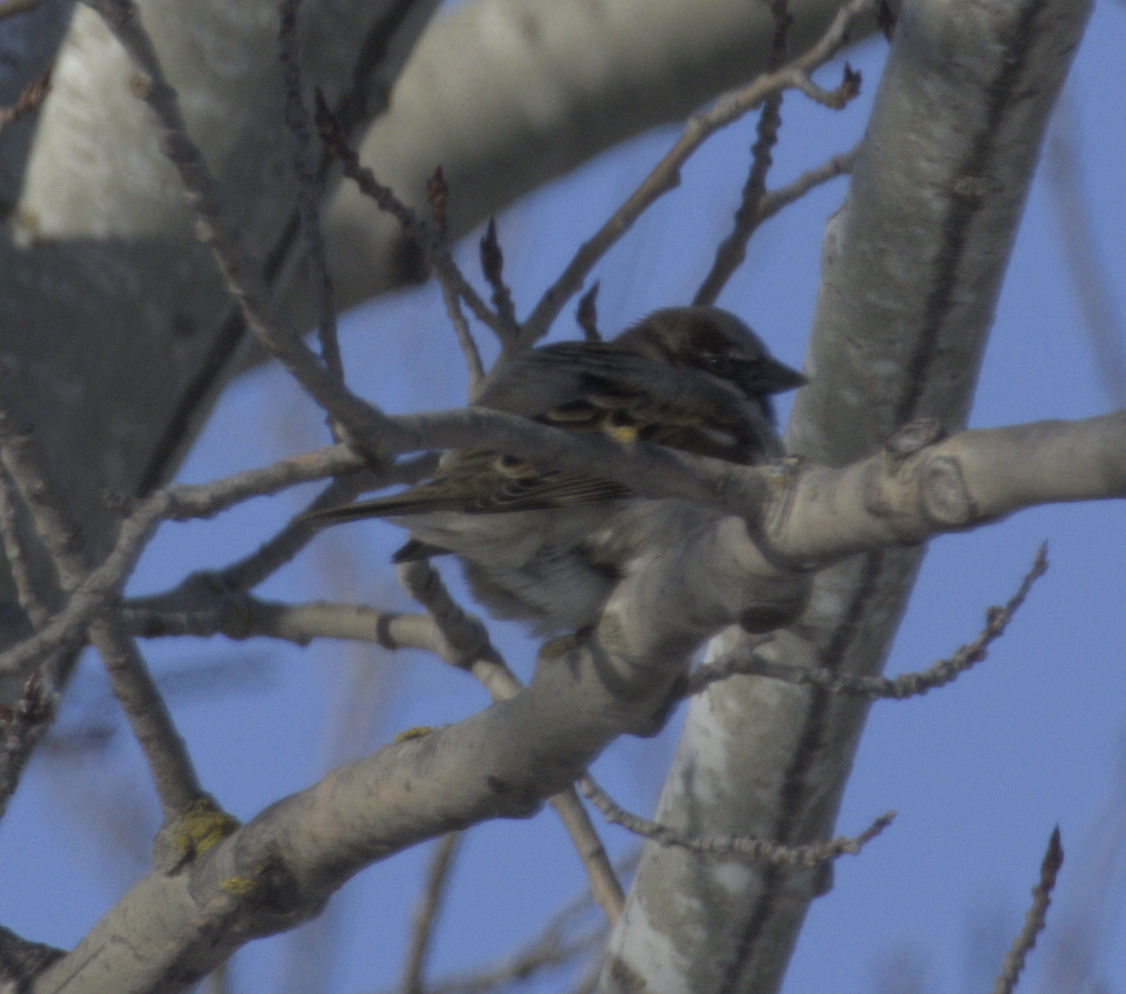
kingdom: Animalia
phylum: Chordata
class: Aves
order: Passeriformes
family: Passeridae
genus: Passer
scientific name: Passer domesticus
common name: House sparrow
